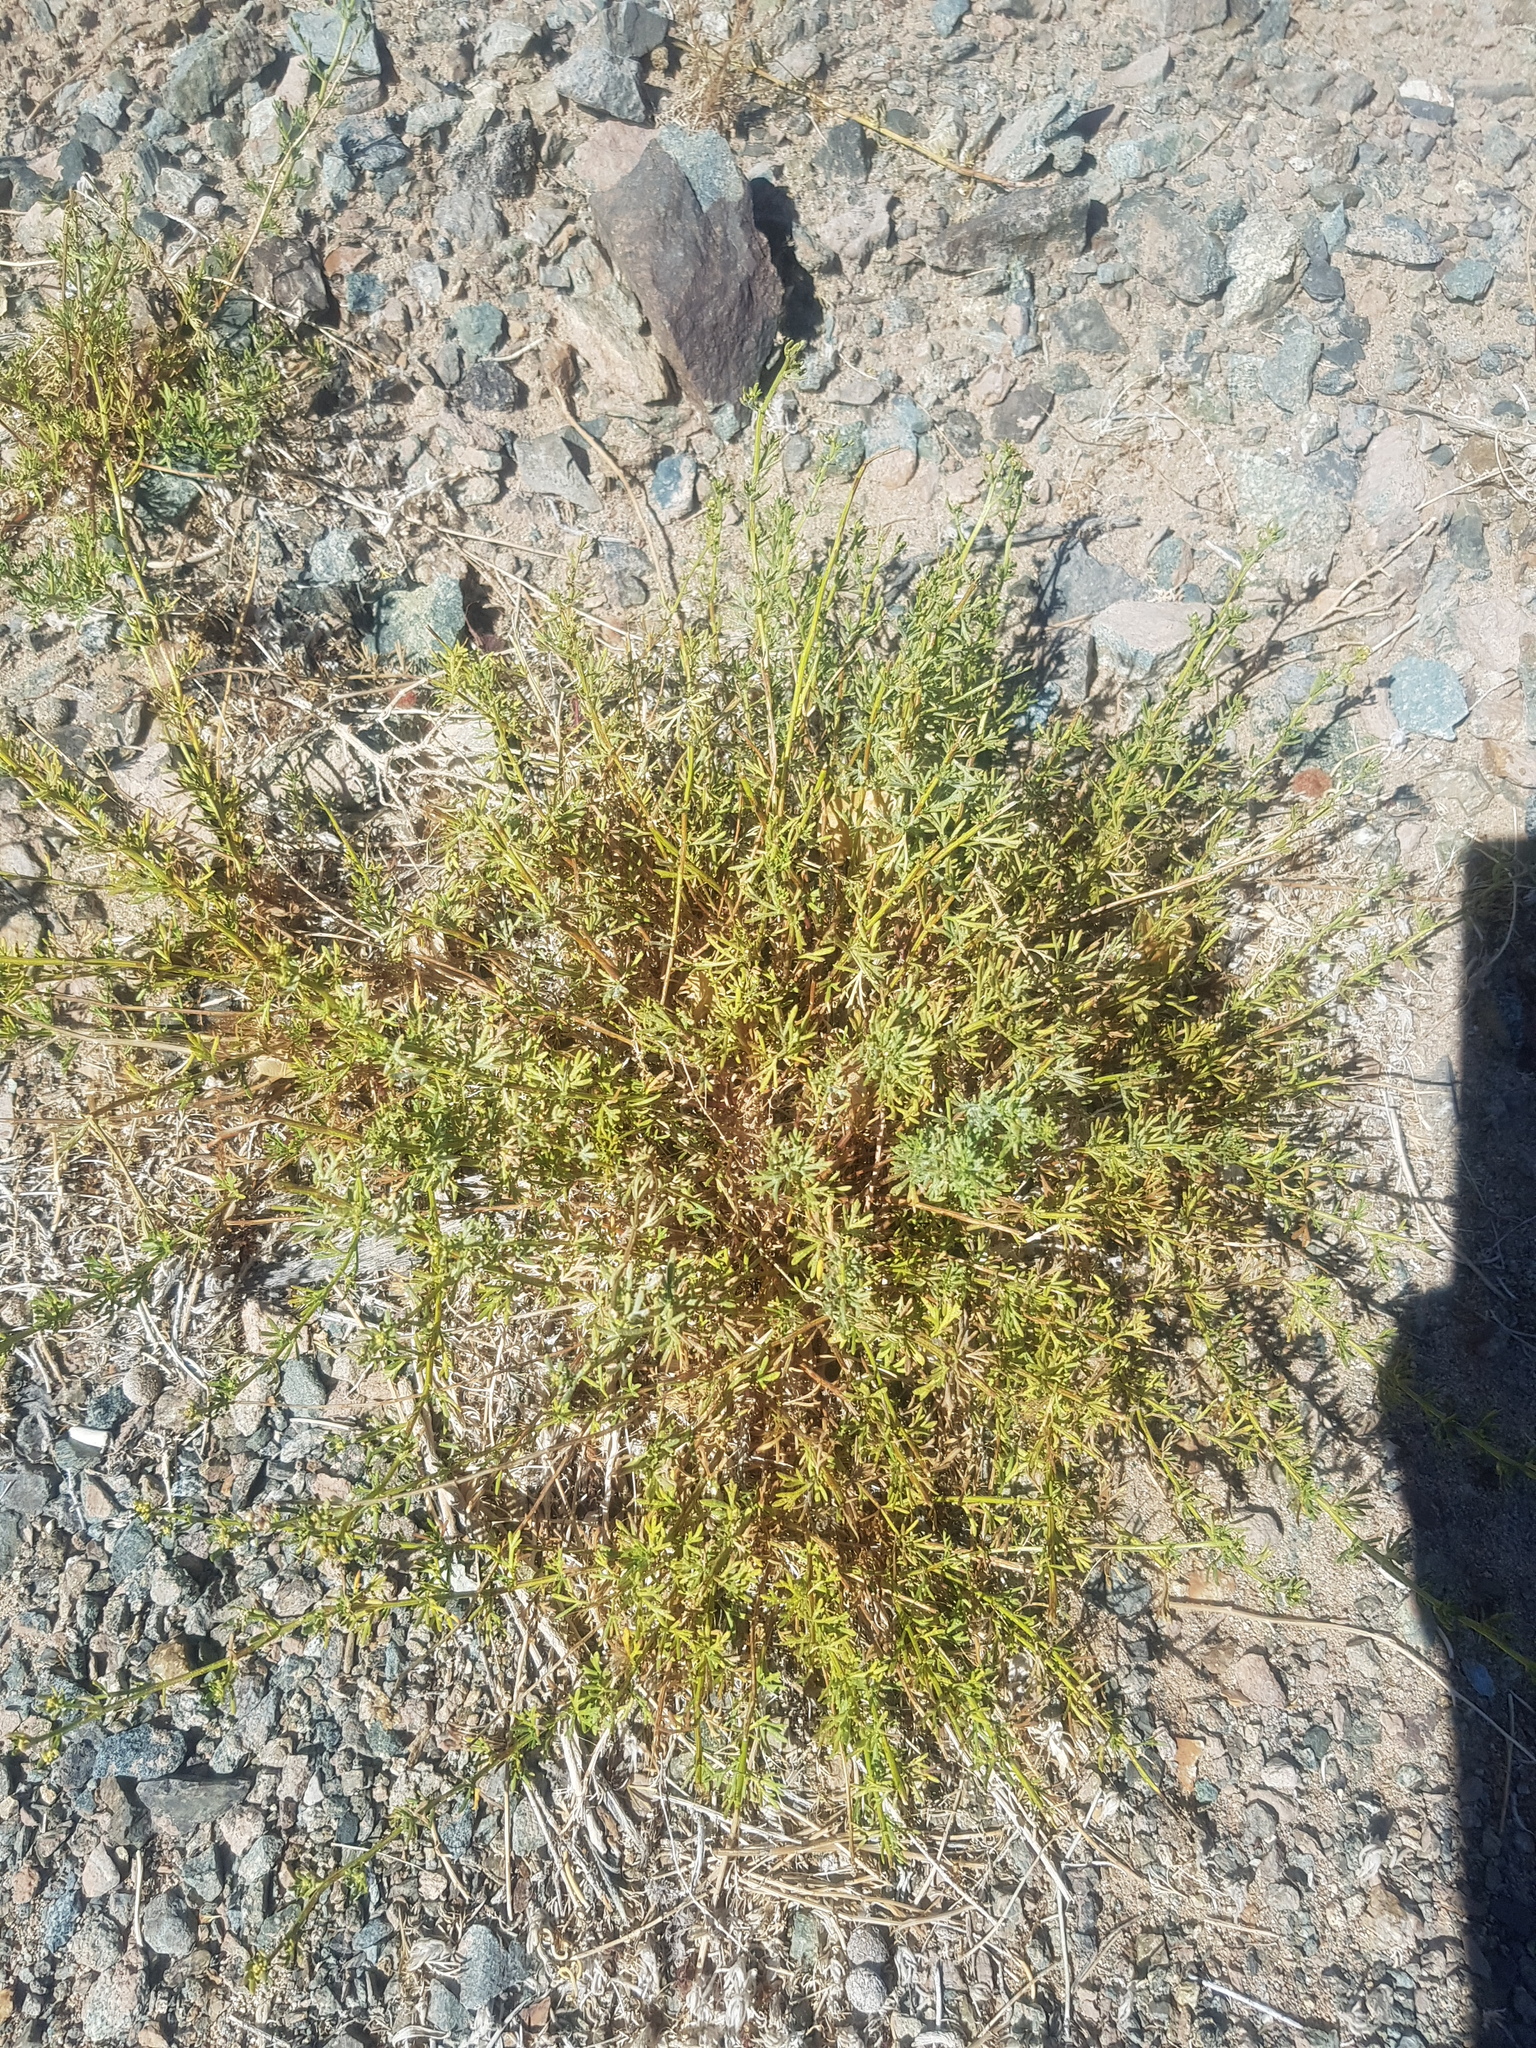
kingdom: Plantae
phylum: Tracheophyta
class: Magnoliopsida
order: Asterales
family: Asteraceae
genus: Ajania
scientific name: Ajania achilleoides
